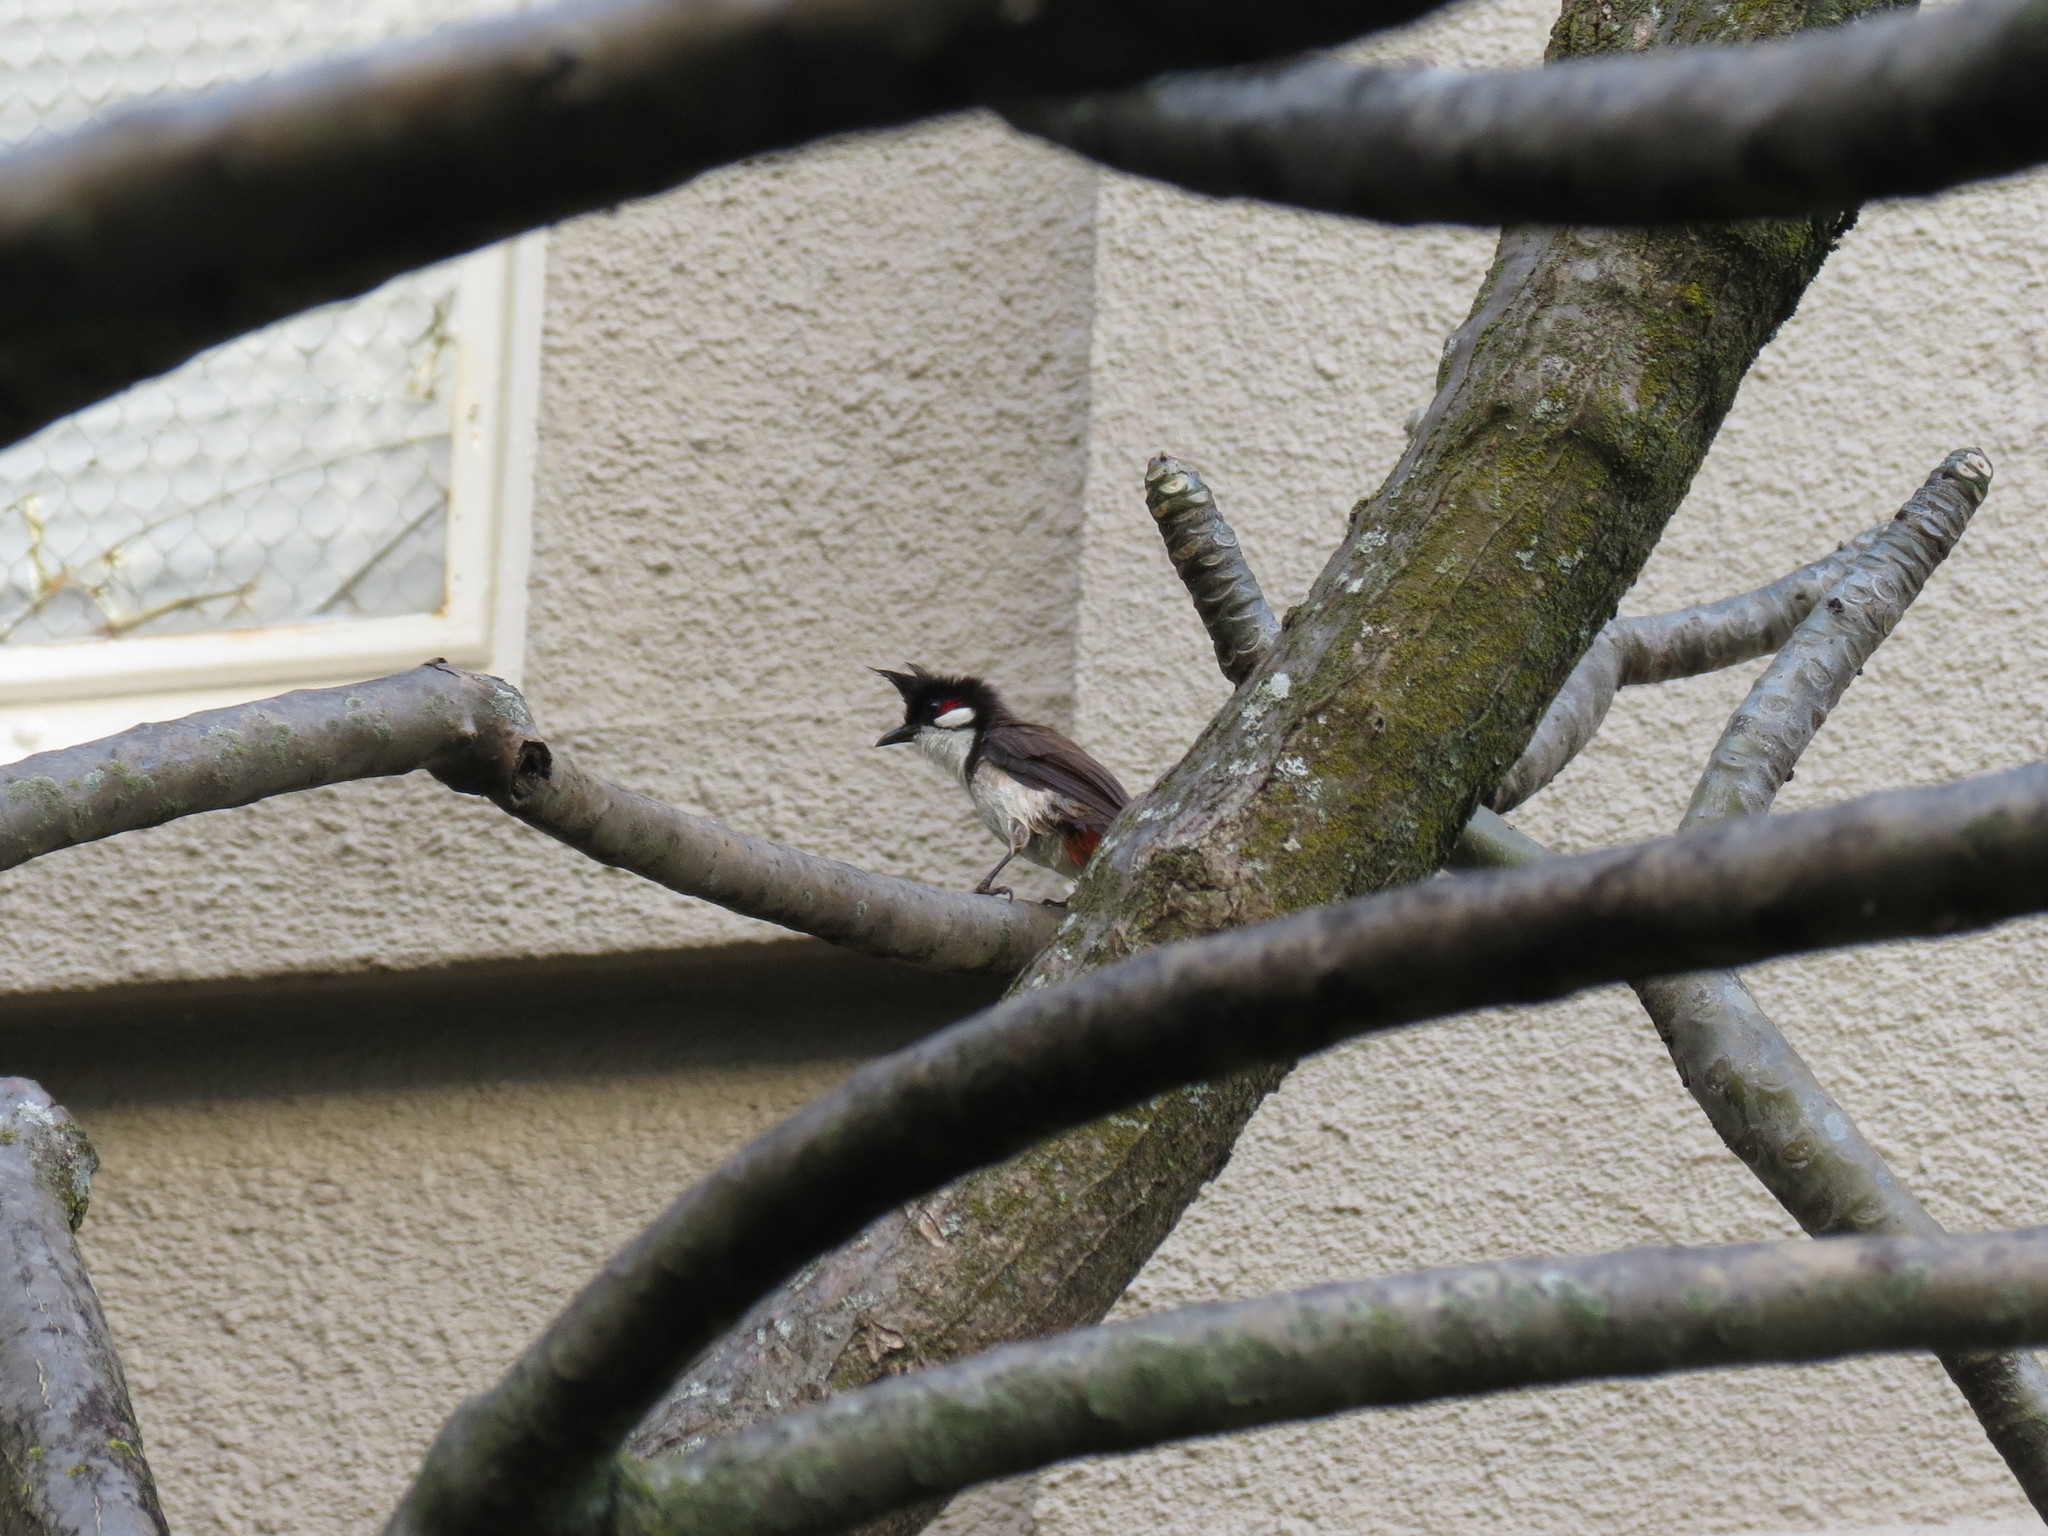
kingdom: Animalia
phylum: Chordata
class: Aves
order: Passeriformes
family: Pycnonotidae
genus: Pycnonotus
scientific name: Pycnonotus jocosus
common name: Red-whiskered bulbul
